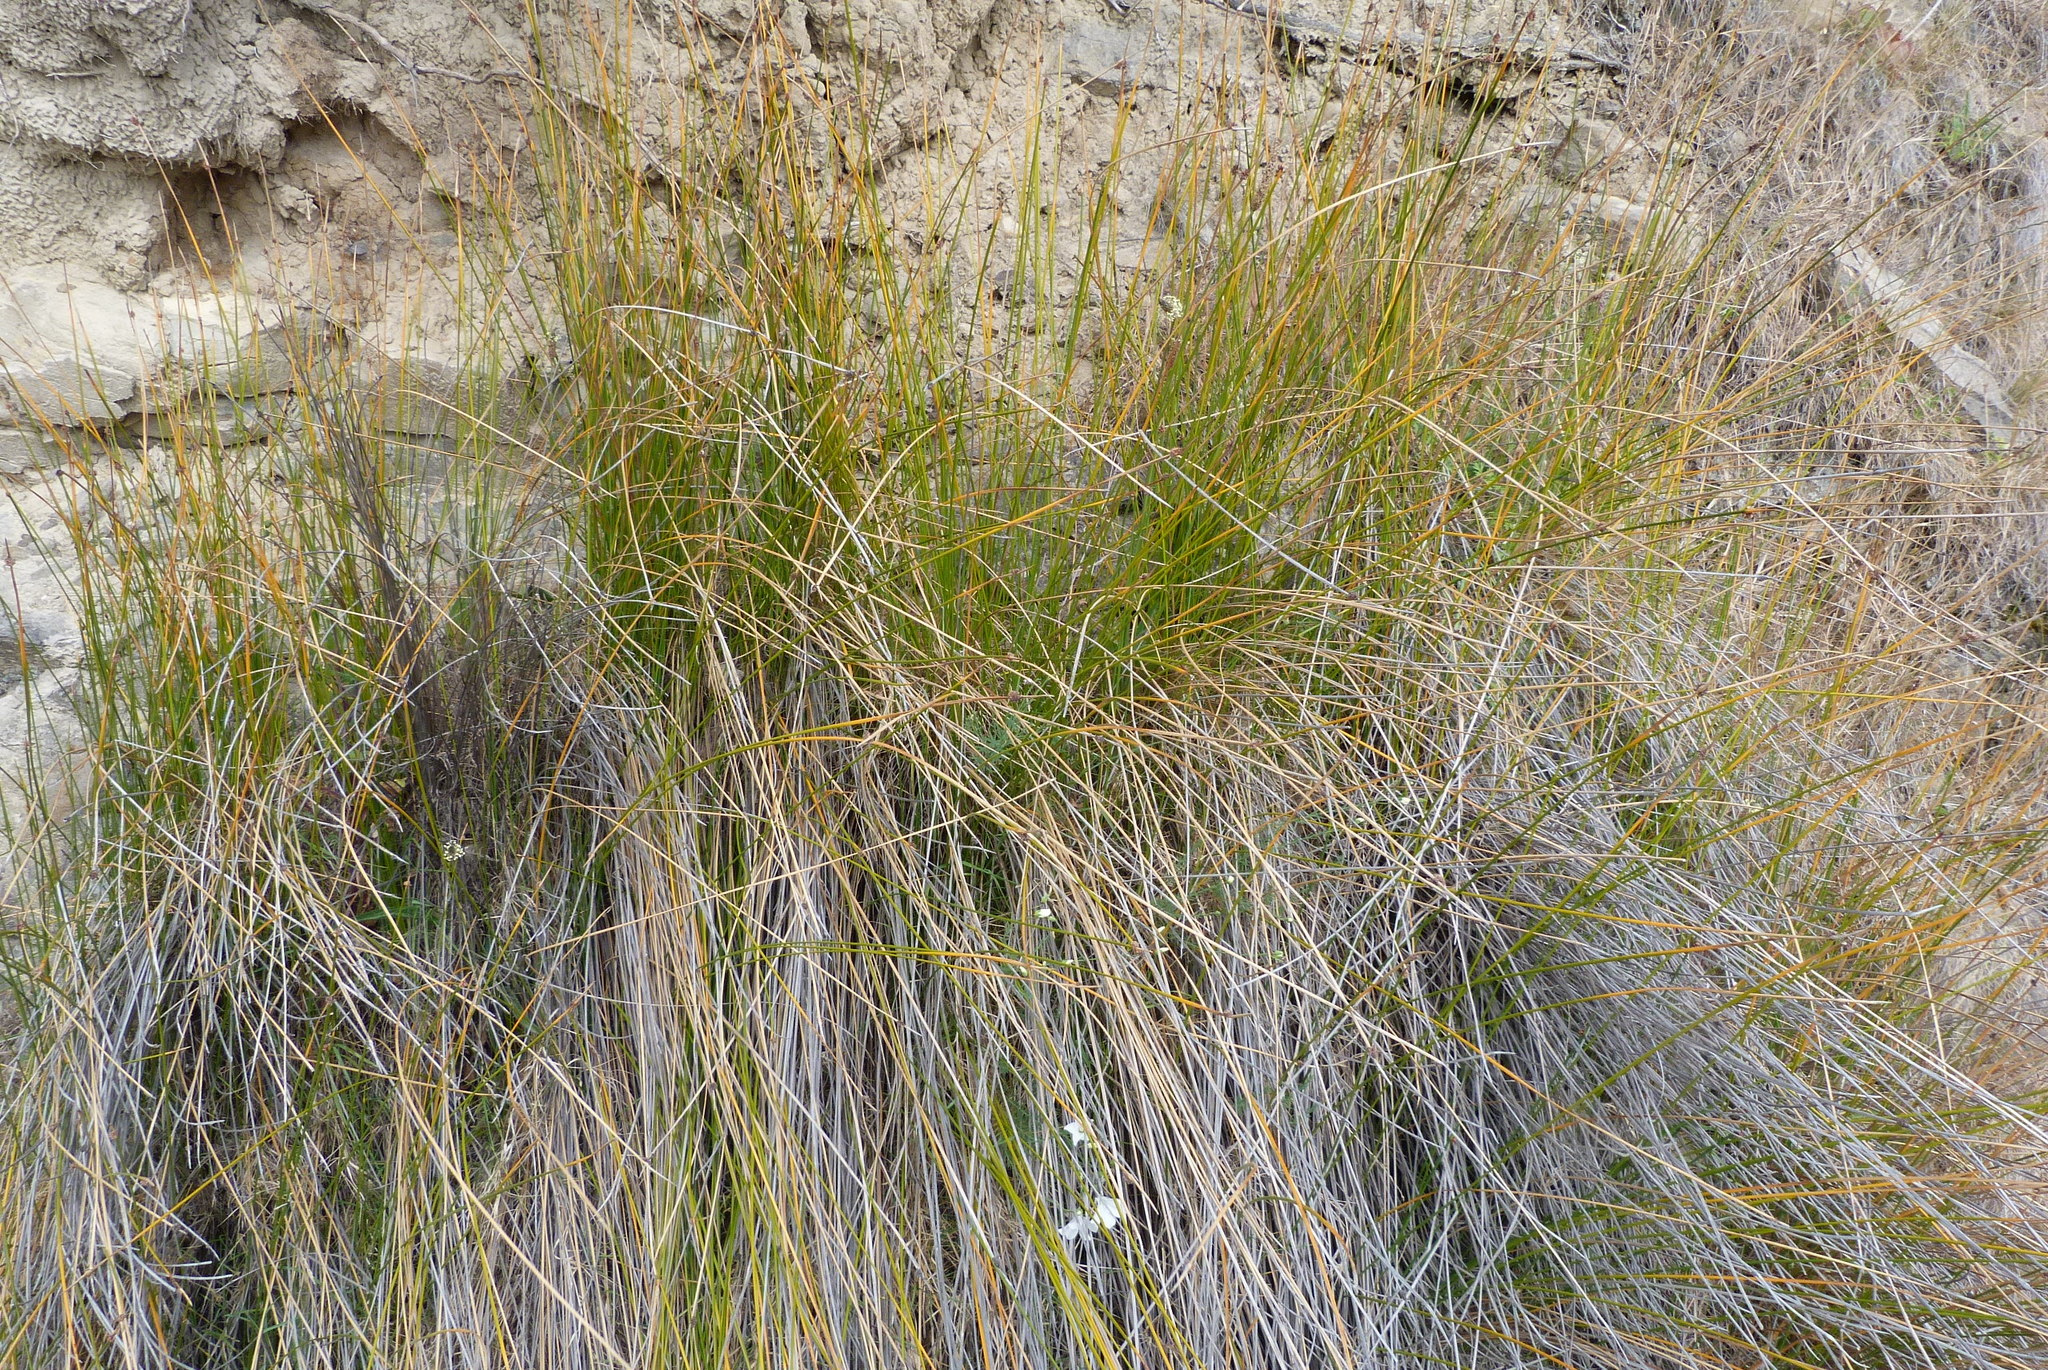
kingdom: Plantae
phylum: Tracheophyta
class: Liliopsida
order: Poales
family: Cyperaceae
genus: Ficinia
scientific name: Ficinia nodosa
